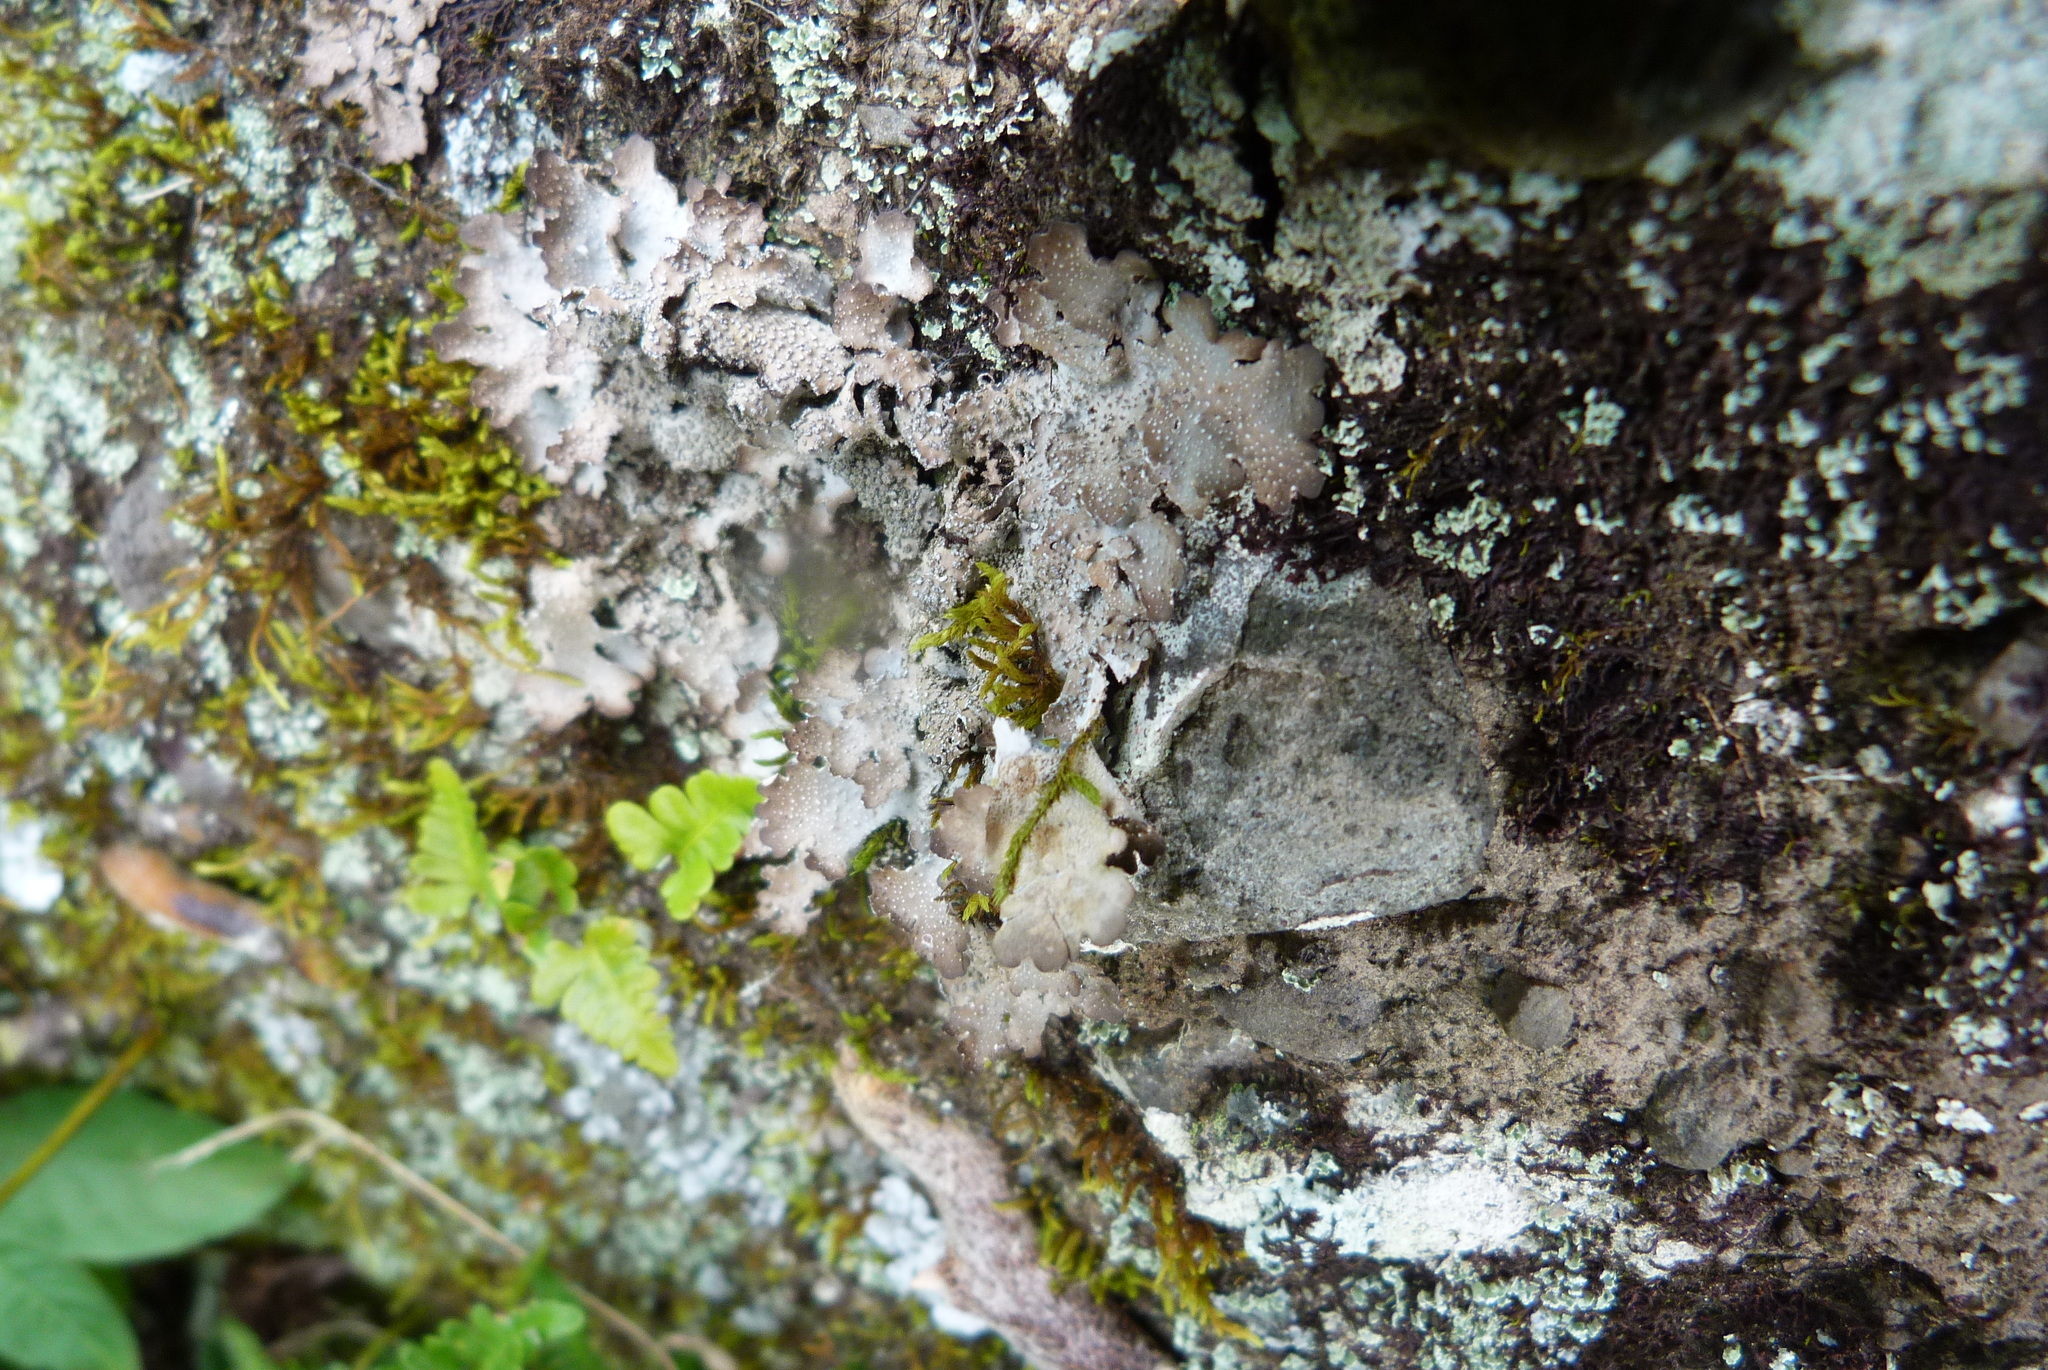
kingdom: Fungi
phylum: Ascomycota
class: Lecanoromycetes
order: Peltigerales
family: Lobariaceae
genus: Pseudocyphellaria
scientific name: Pseudocyphellaria argyracea
